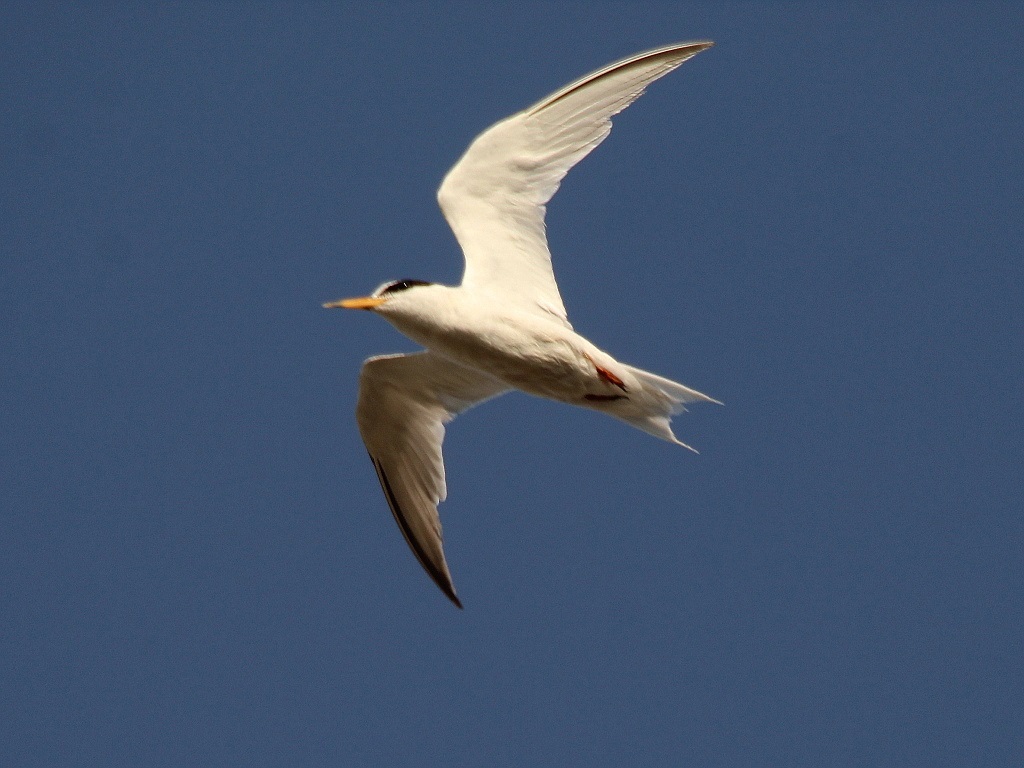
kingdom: Animalia
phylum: Chordata
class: Aves
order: Charadriiformes
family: Laridae
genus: Sternula
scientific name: Sternula albifrons
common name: Little tern
